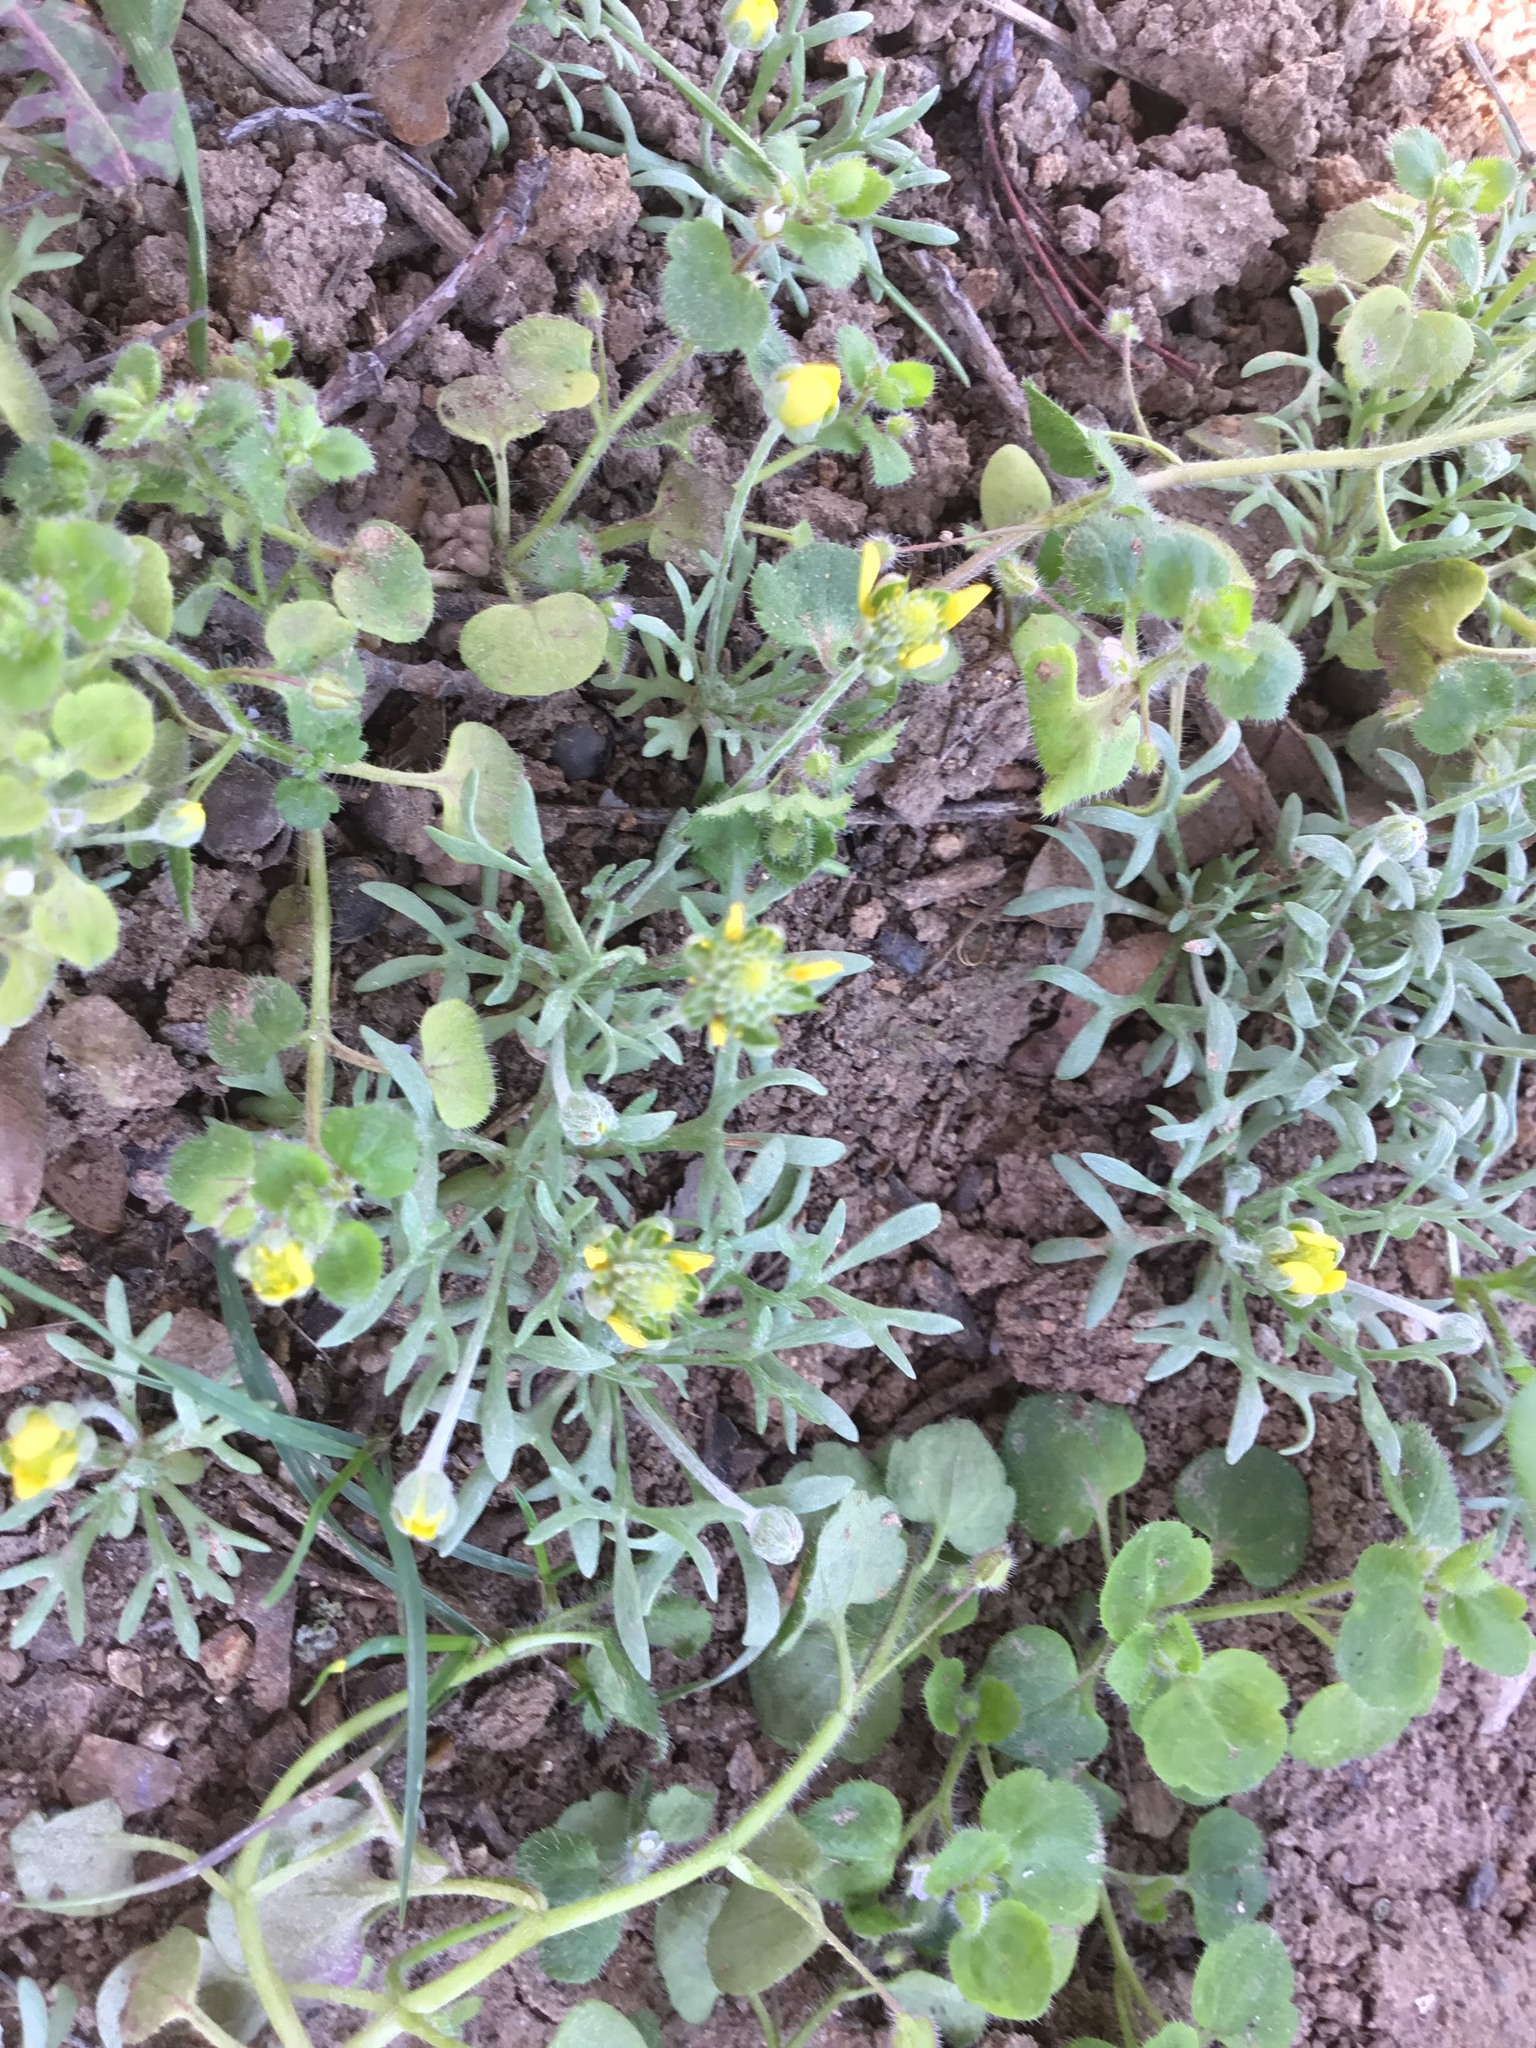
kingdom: Plantae
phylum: Tracheophyta
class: Magnoliopsida
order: Ranunculales
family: Ranunculaceae
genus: Ceratocephala
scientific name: Ceratocephala orthoceras
